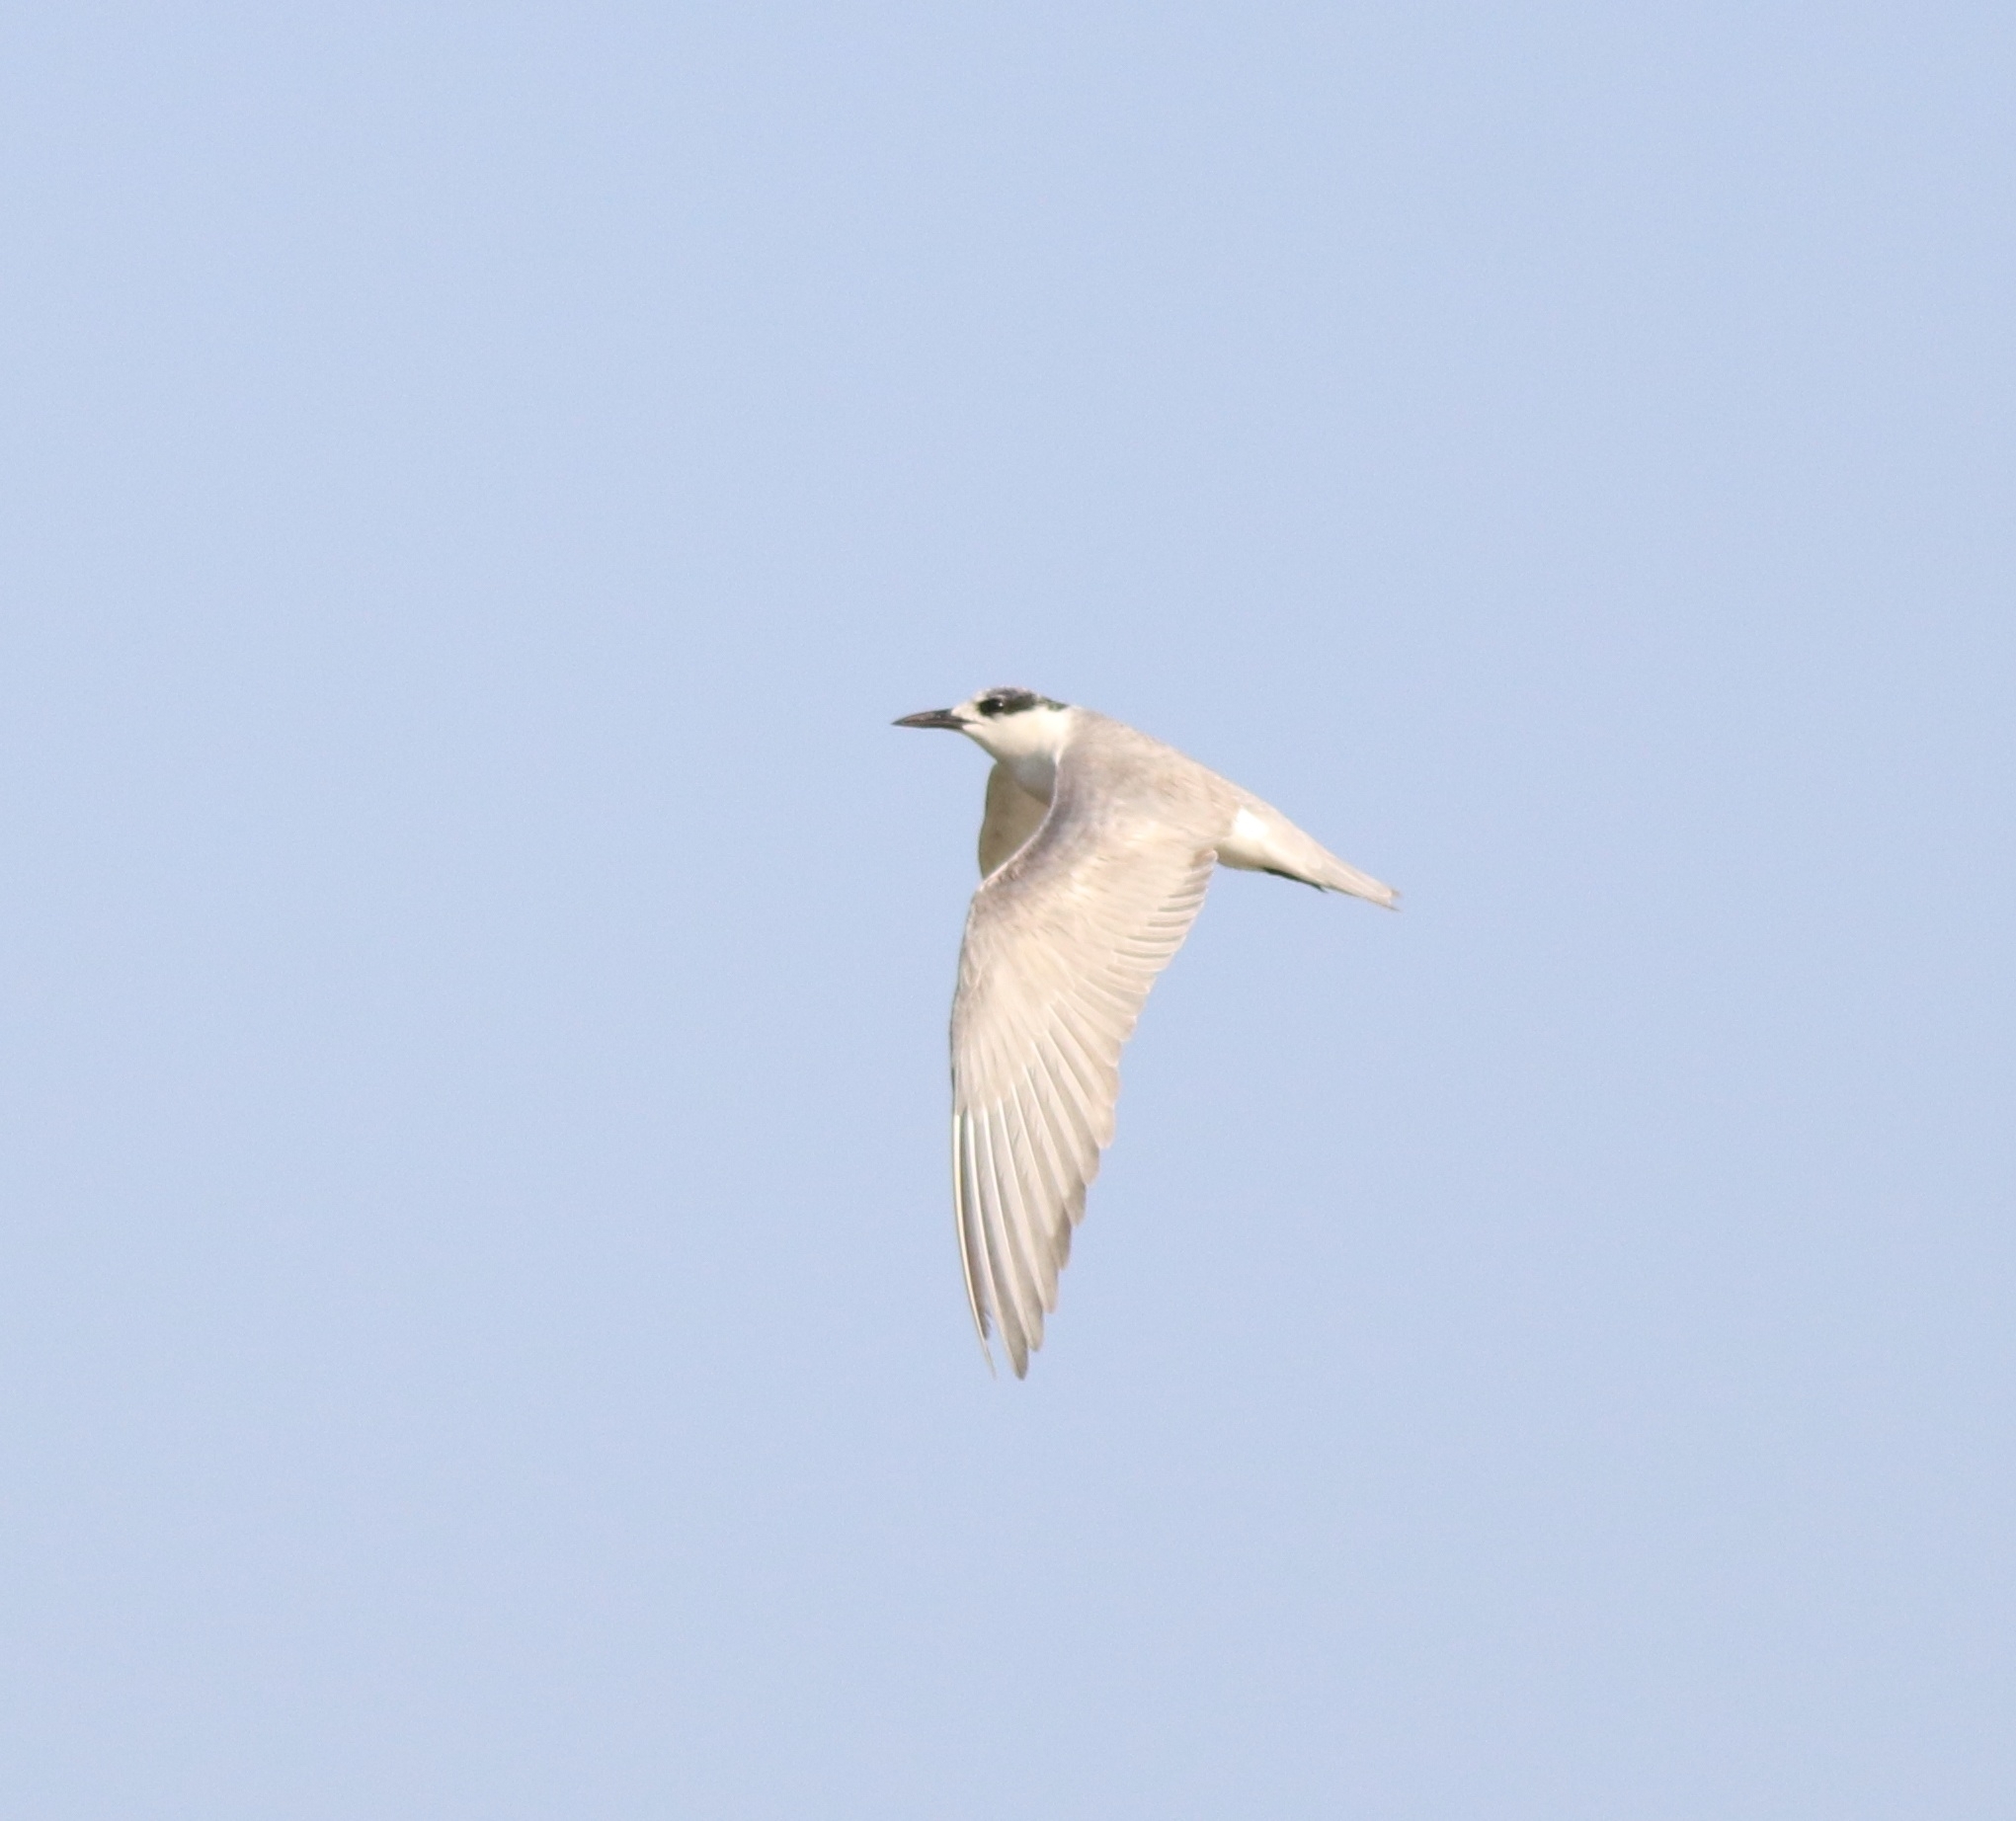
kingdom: Animalia
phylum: Chordata
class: Aves
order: Charadriiformes
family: Laridae
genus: Chlidonias
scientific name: Chlidonias hybrida
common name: Whiskered tern
